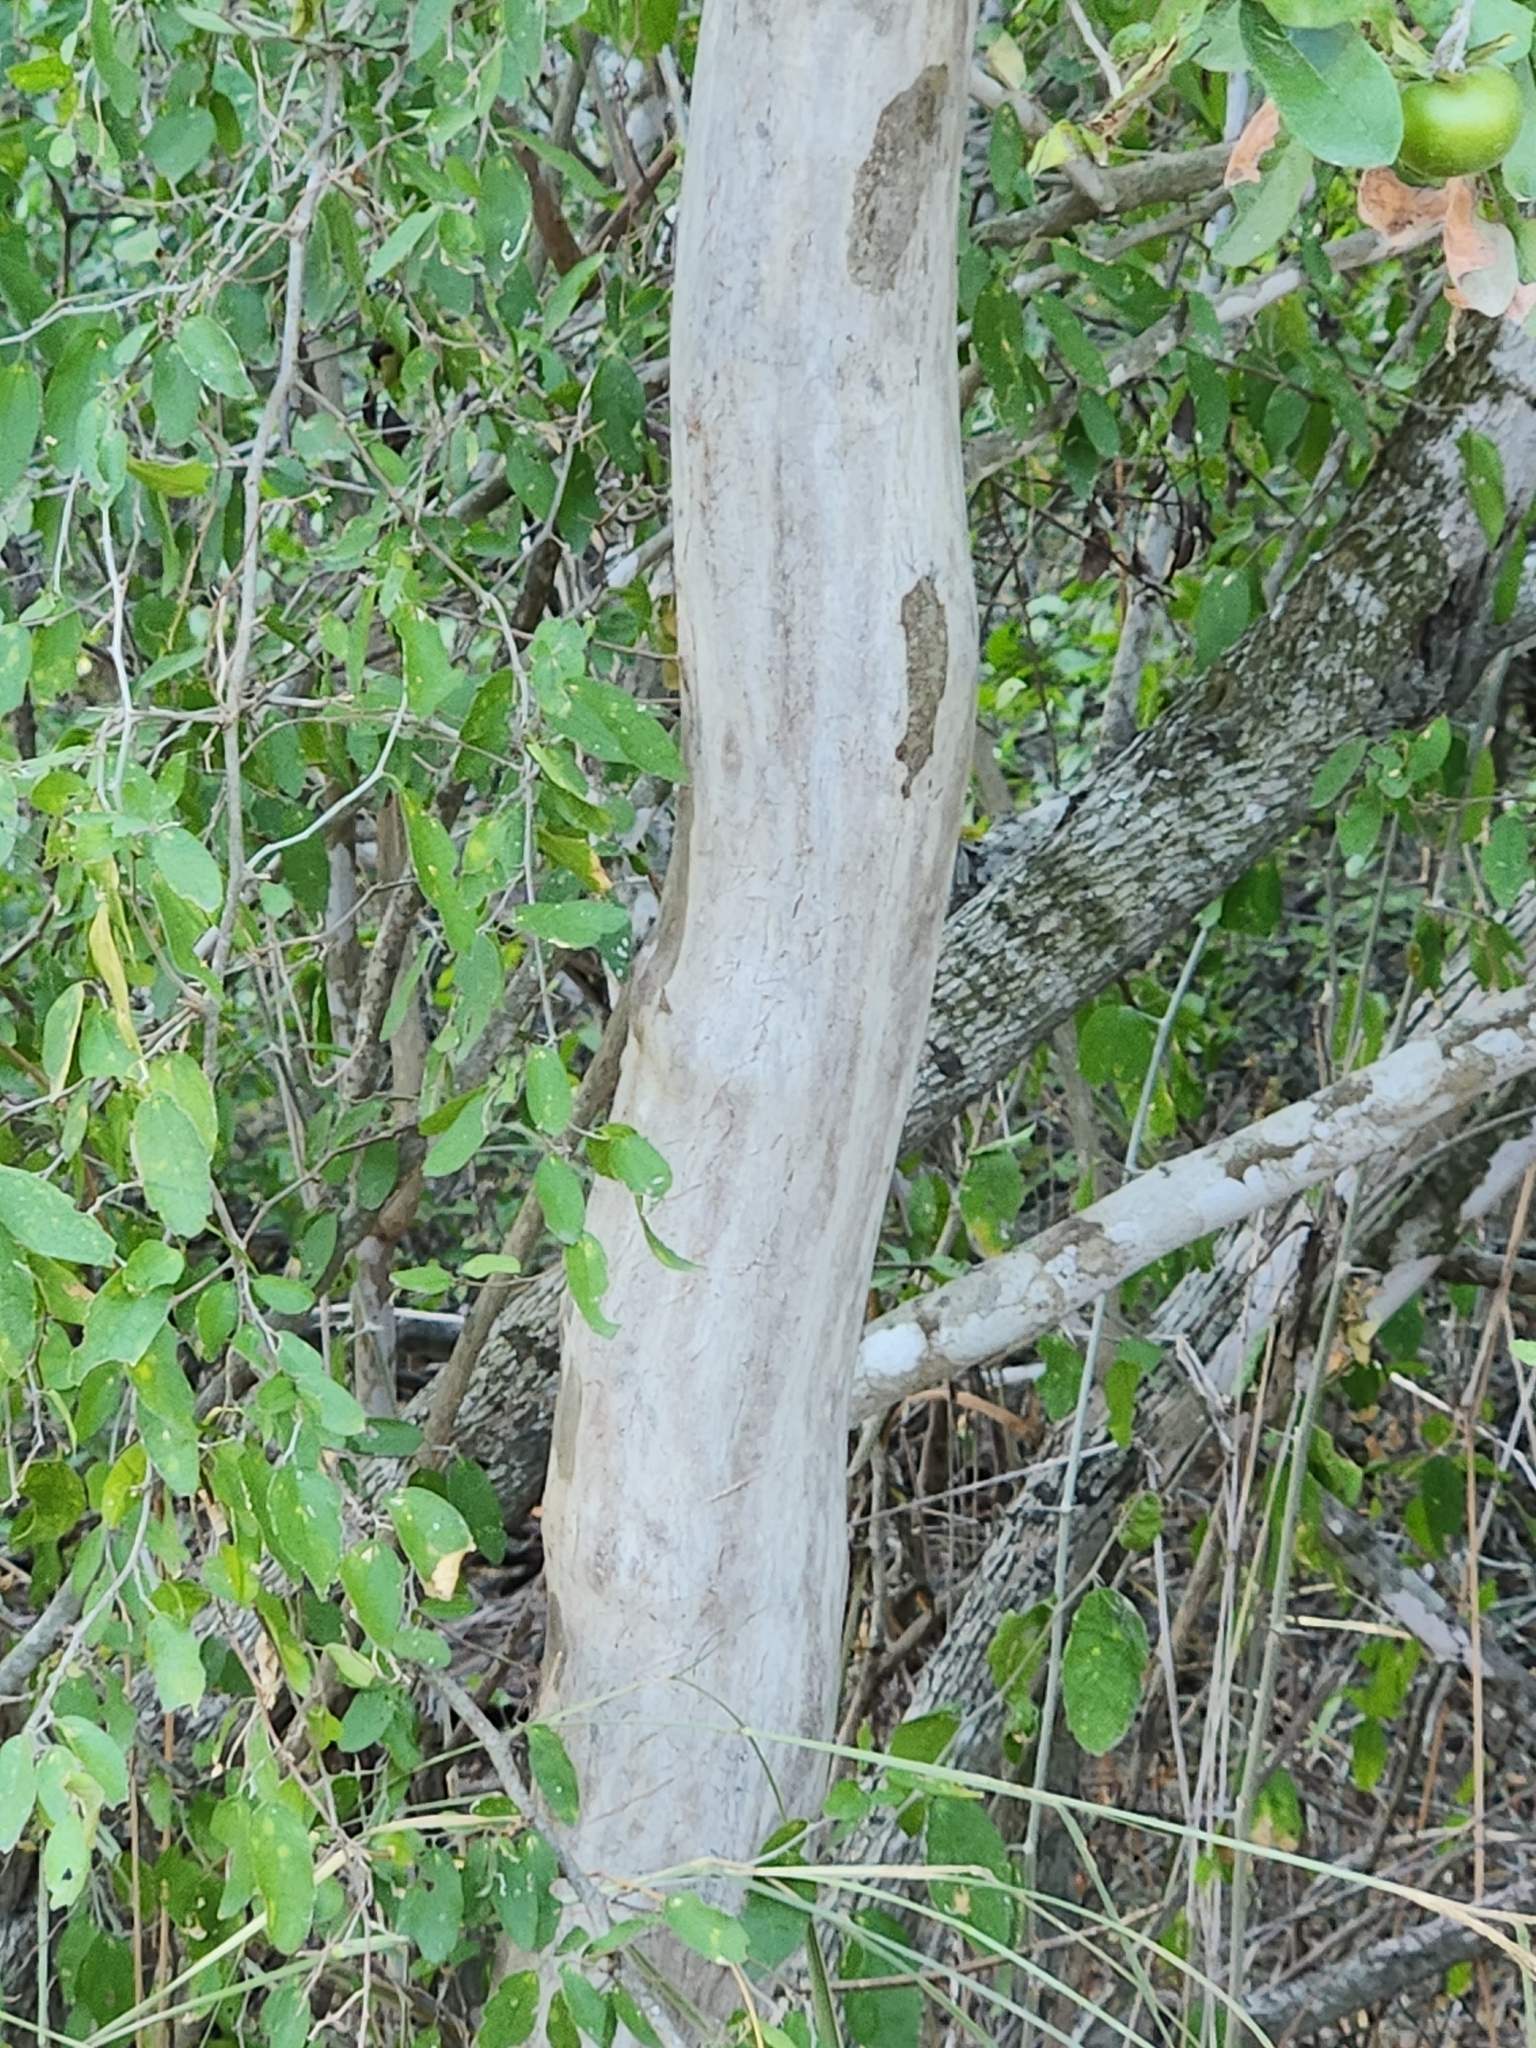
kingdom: Plantae
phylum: Tracheophyta
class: Magnoliopsida
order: Ericales
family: Ebenaceae
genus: Diospyros
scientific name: Diospyros texana
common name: Texas persimmon
